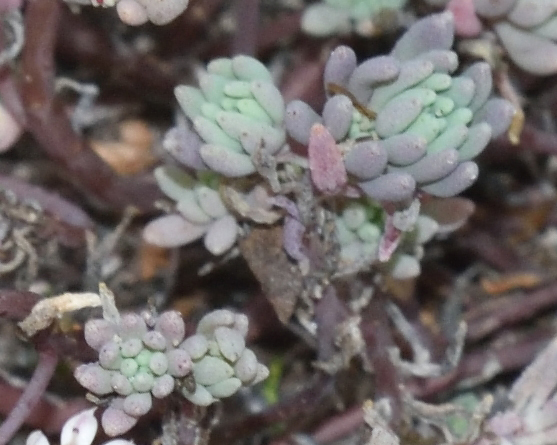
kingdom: Plantae
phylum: Tracheophyta
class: Magnoliopsida
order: Saxifragales
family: Crassulaceae
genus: Sedum
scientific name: Sedum hispanicum
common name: Spanish stonecrop
